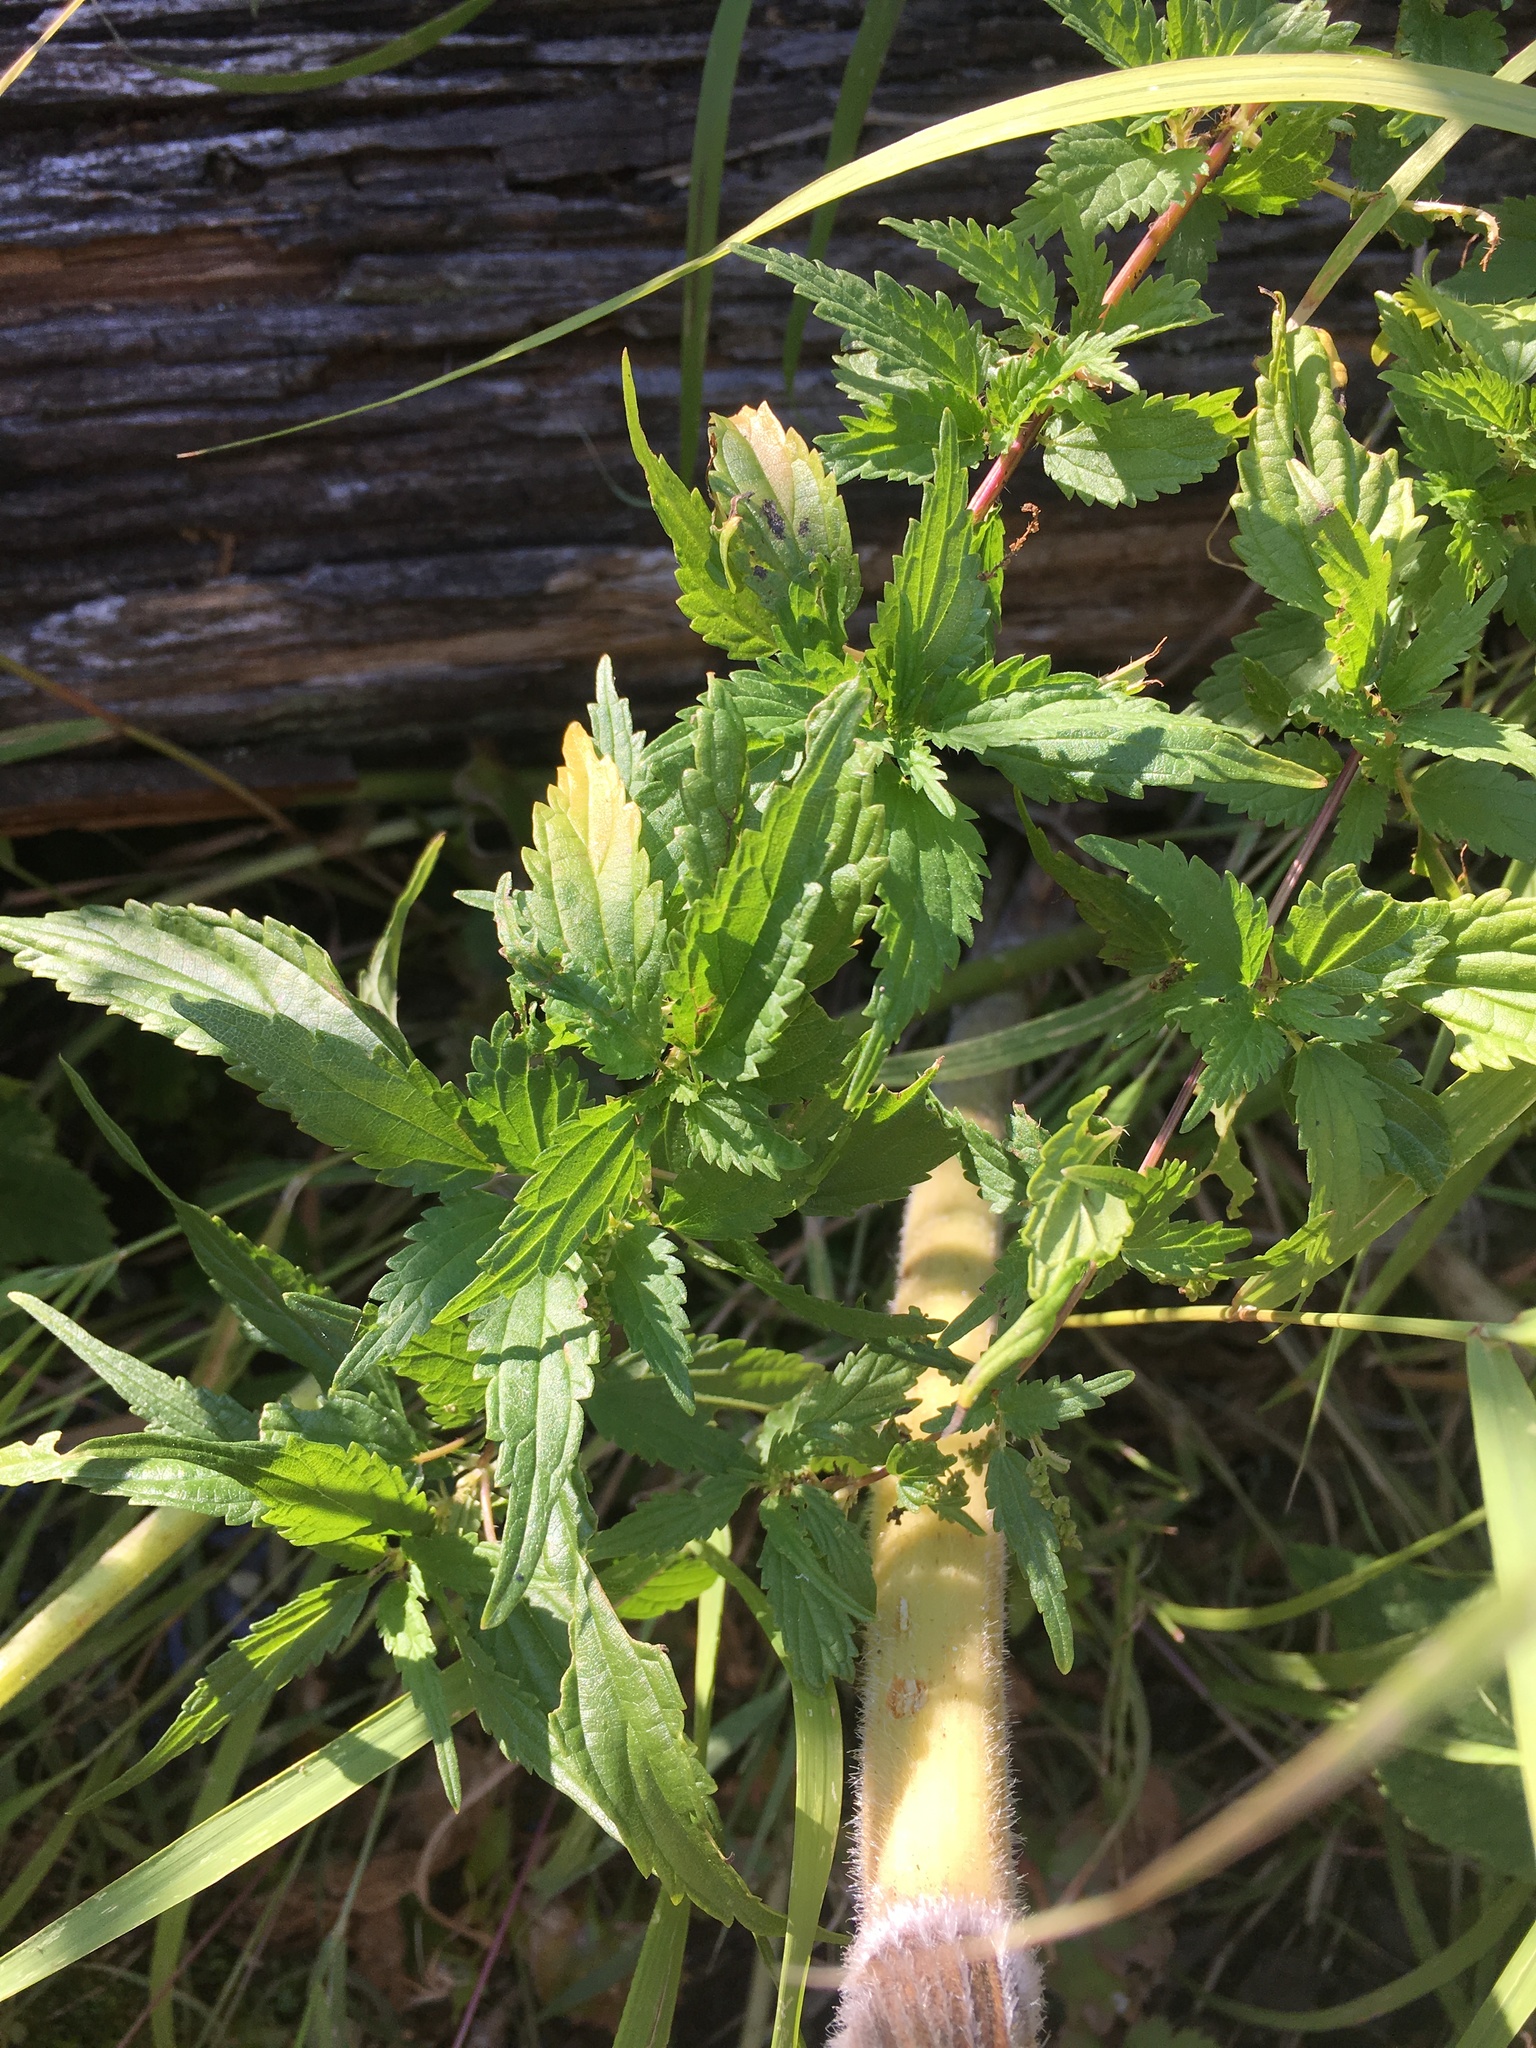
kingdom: Plantae
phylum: Tracheophyta
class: Magnoliopsida
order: Rosales
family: Urticaceae
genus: Urtica
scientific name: Urtica gracilis
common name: Slender stinging nettle
